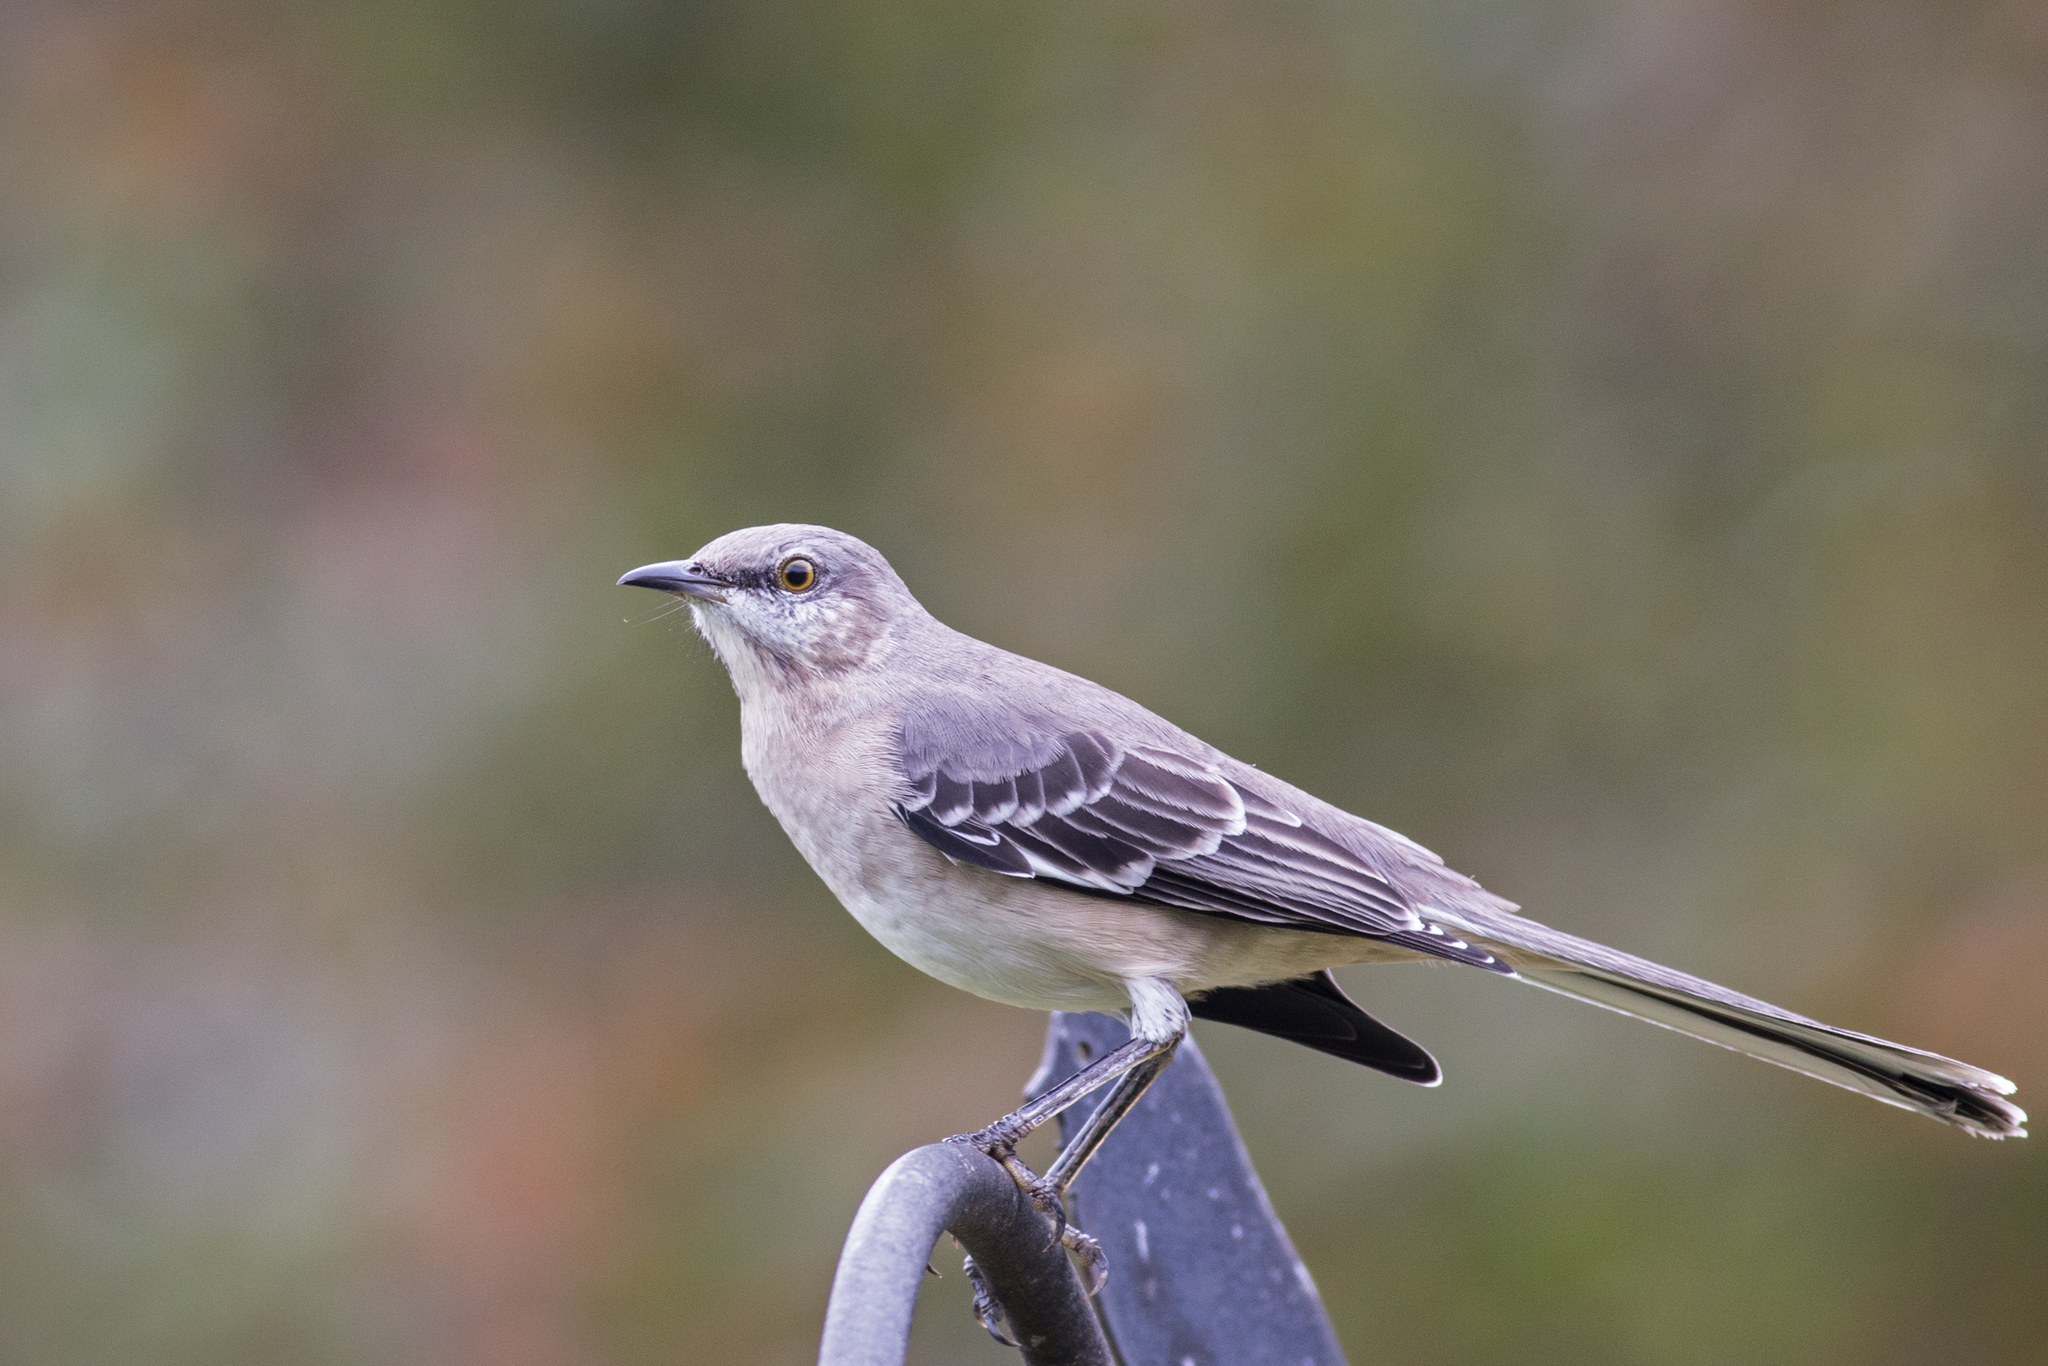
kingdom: Animalia
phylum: Chordata
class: Aves
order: Passeriformes
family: Mimidae
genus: Mimus
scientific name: Mimus polyglottos
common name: Northern mockingbird
